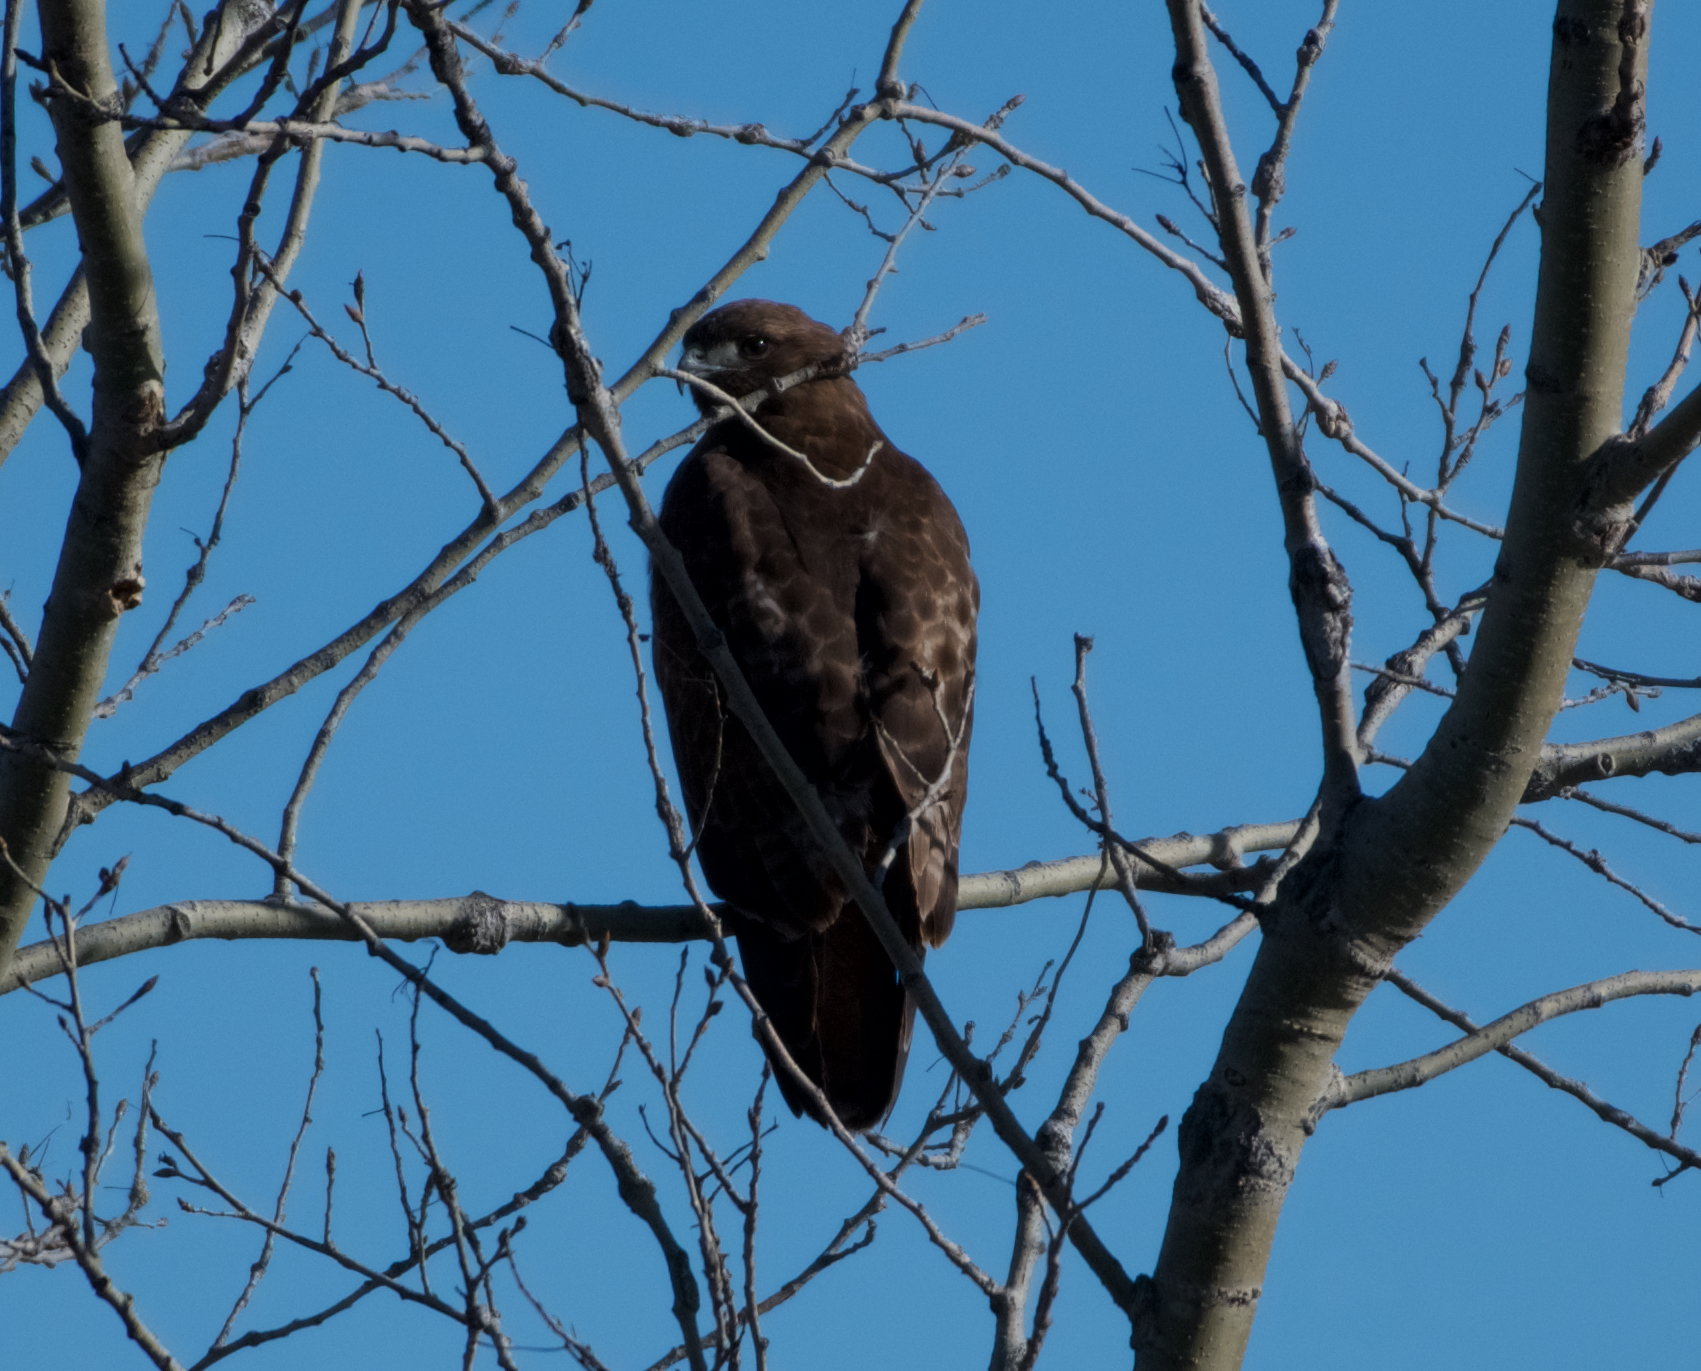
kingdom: Animalia
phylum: Chordata
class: Aves
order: Accipitriformes
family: Accipitridae
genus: Buteo
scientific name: Buteo jamaicensis
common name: Red-tailed hawk
